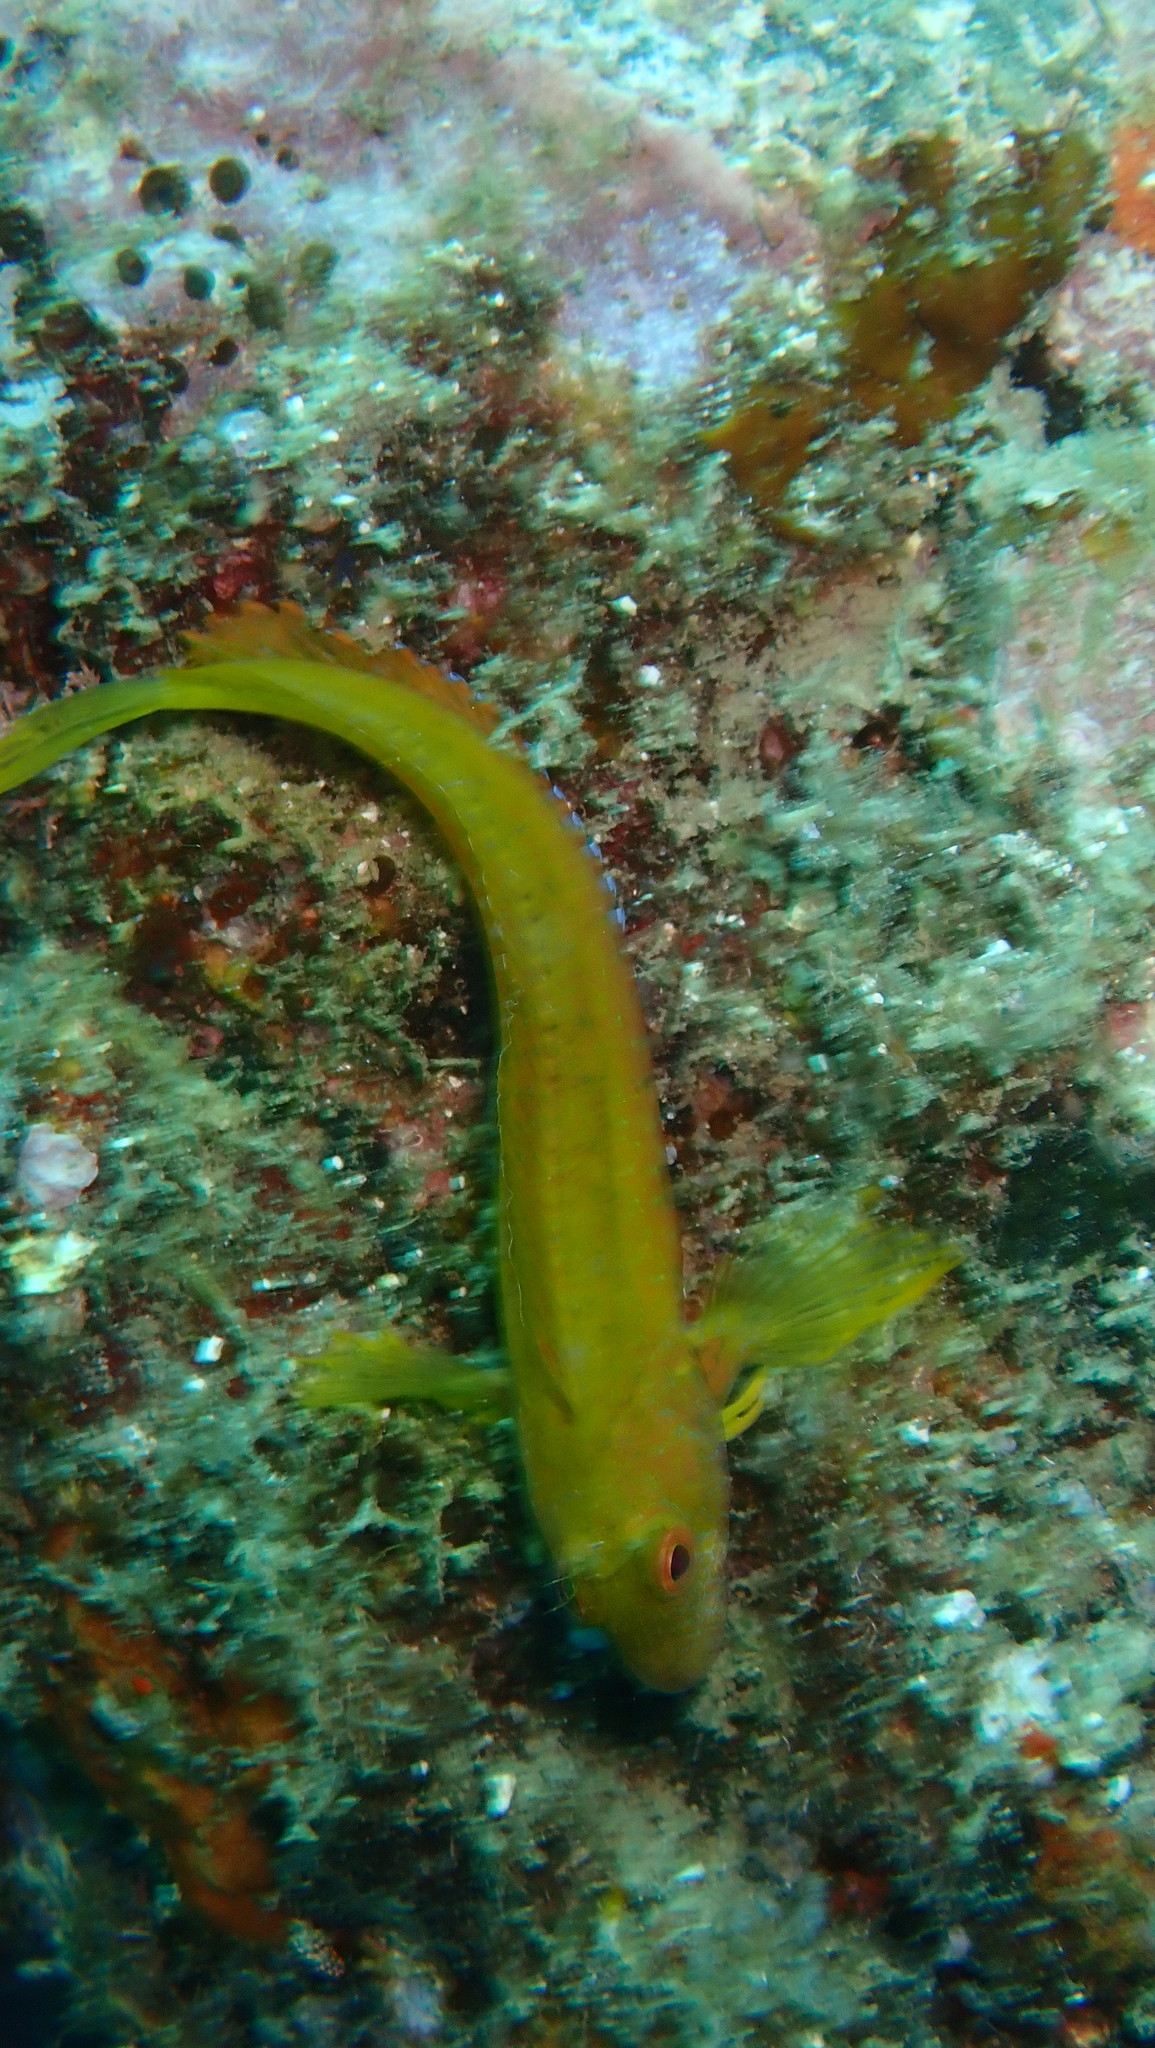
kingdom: Animalia
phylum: Chordata
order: Perciformes
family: Blenniidae
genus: Parablennius
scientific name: Parablennius pilicornis
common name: Ringneck blenny
